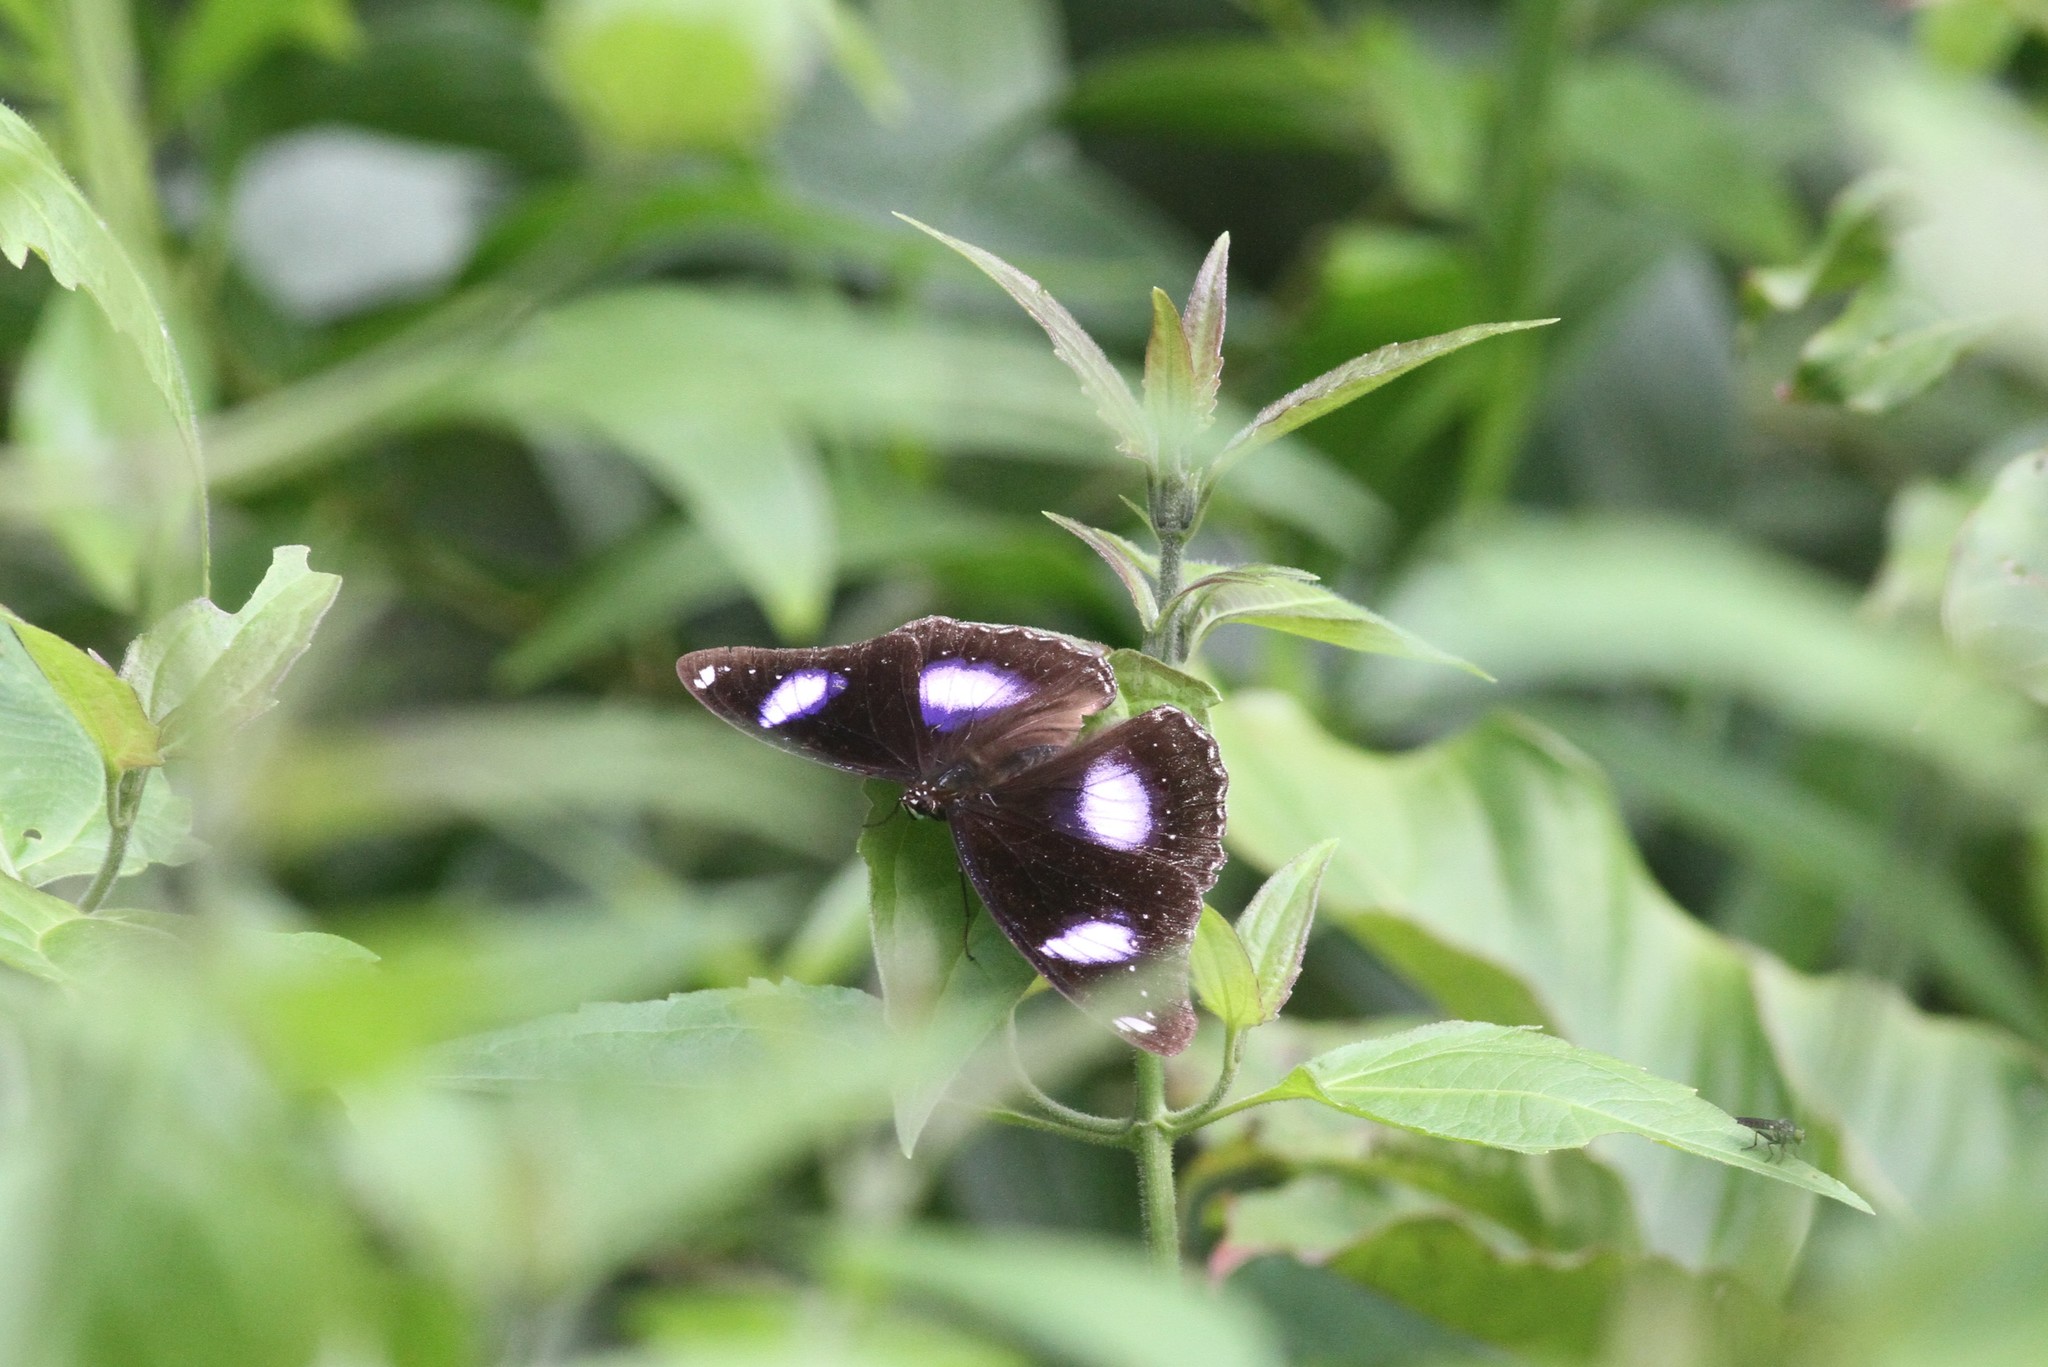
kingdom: Animalia
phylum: Arthropoda
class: Insecta
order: Lepidoptera
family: Nymphalidae
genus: Hypolimnas
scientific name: Hypolimnas bolina
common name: Great eggfly
